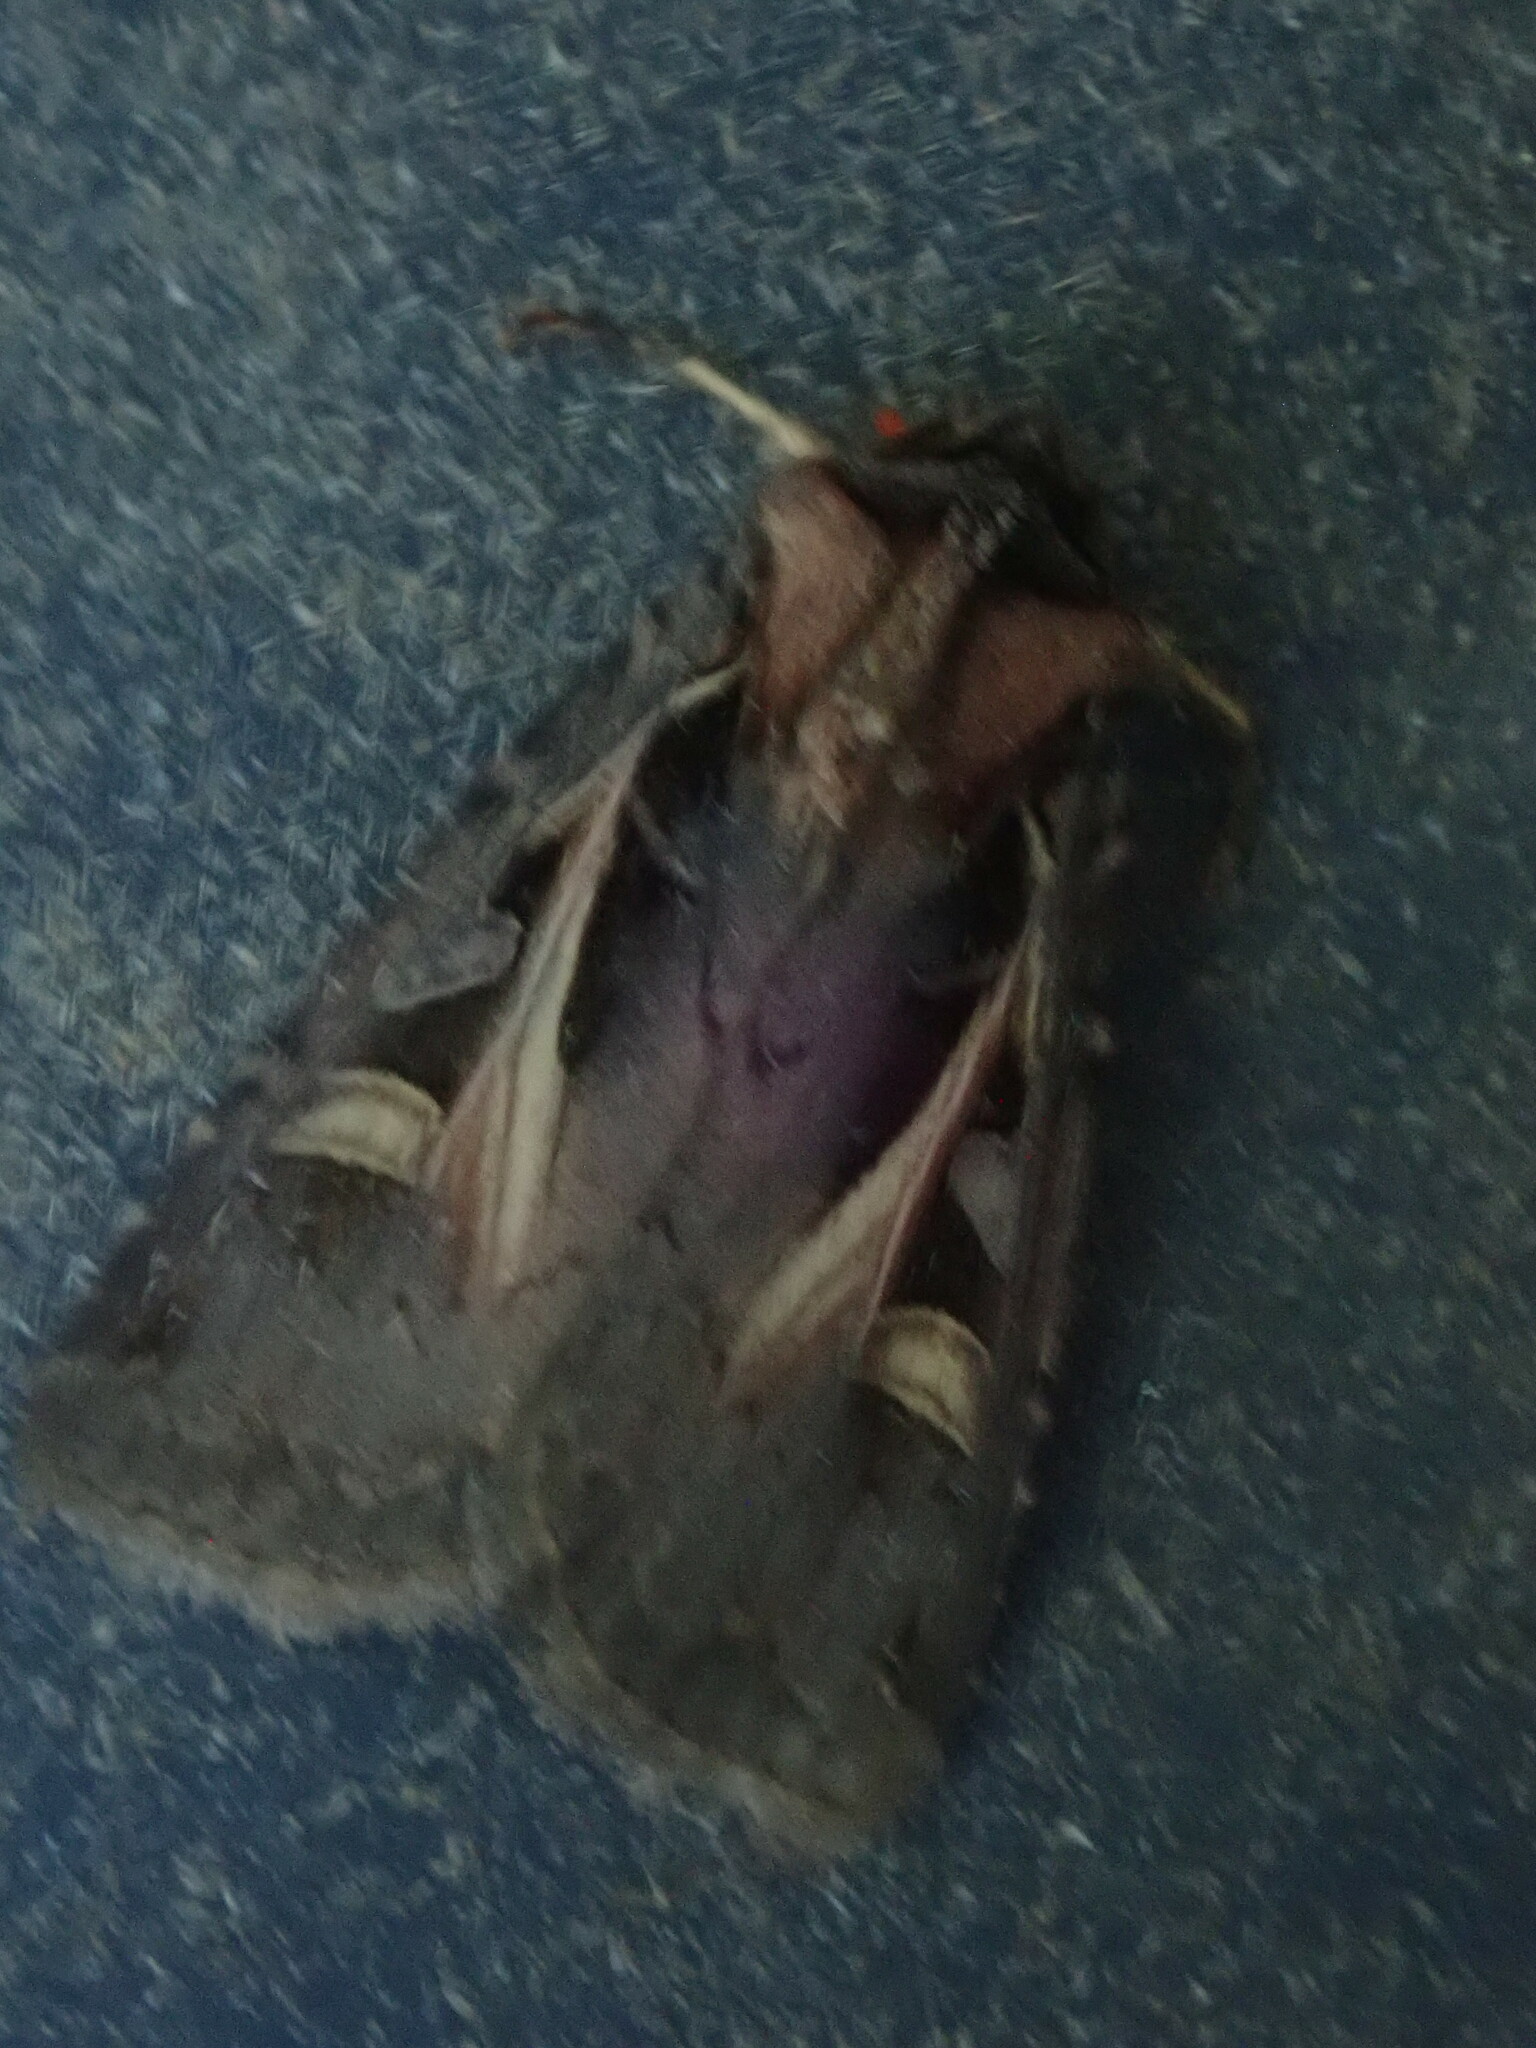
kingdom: Animalia
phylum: Arthropoda
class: Insecta
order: Lepidoptera
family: Noctuidae
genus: Feltia
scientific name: Feltia herilis
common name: Master's dart
